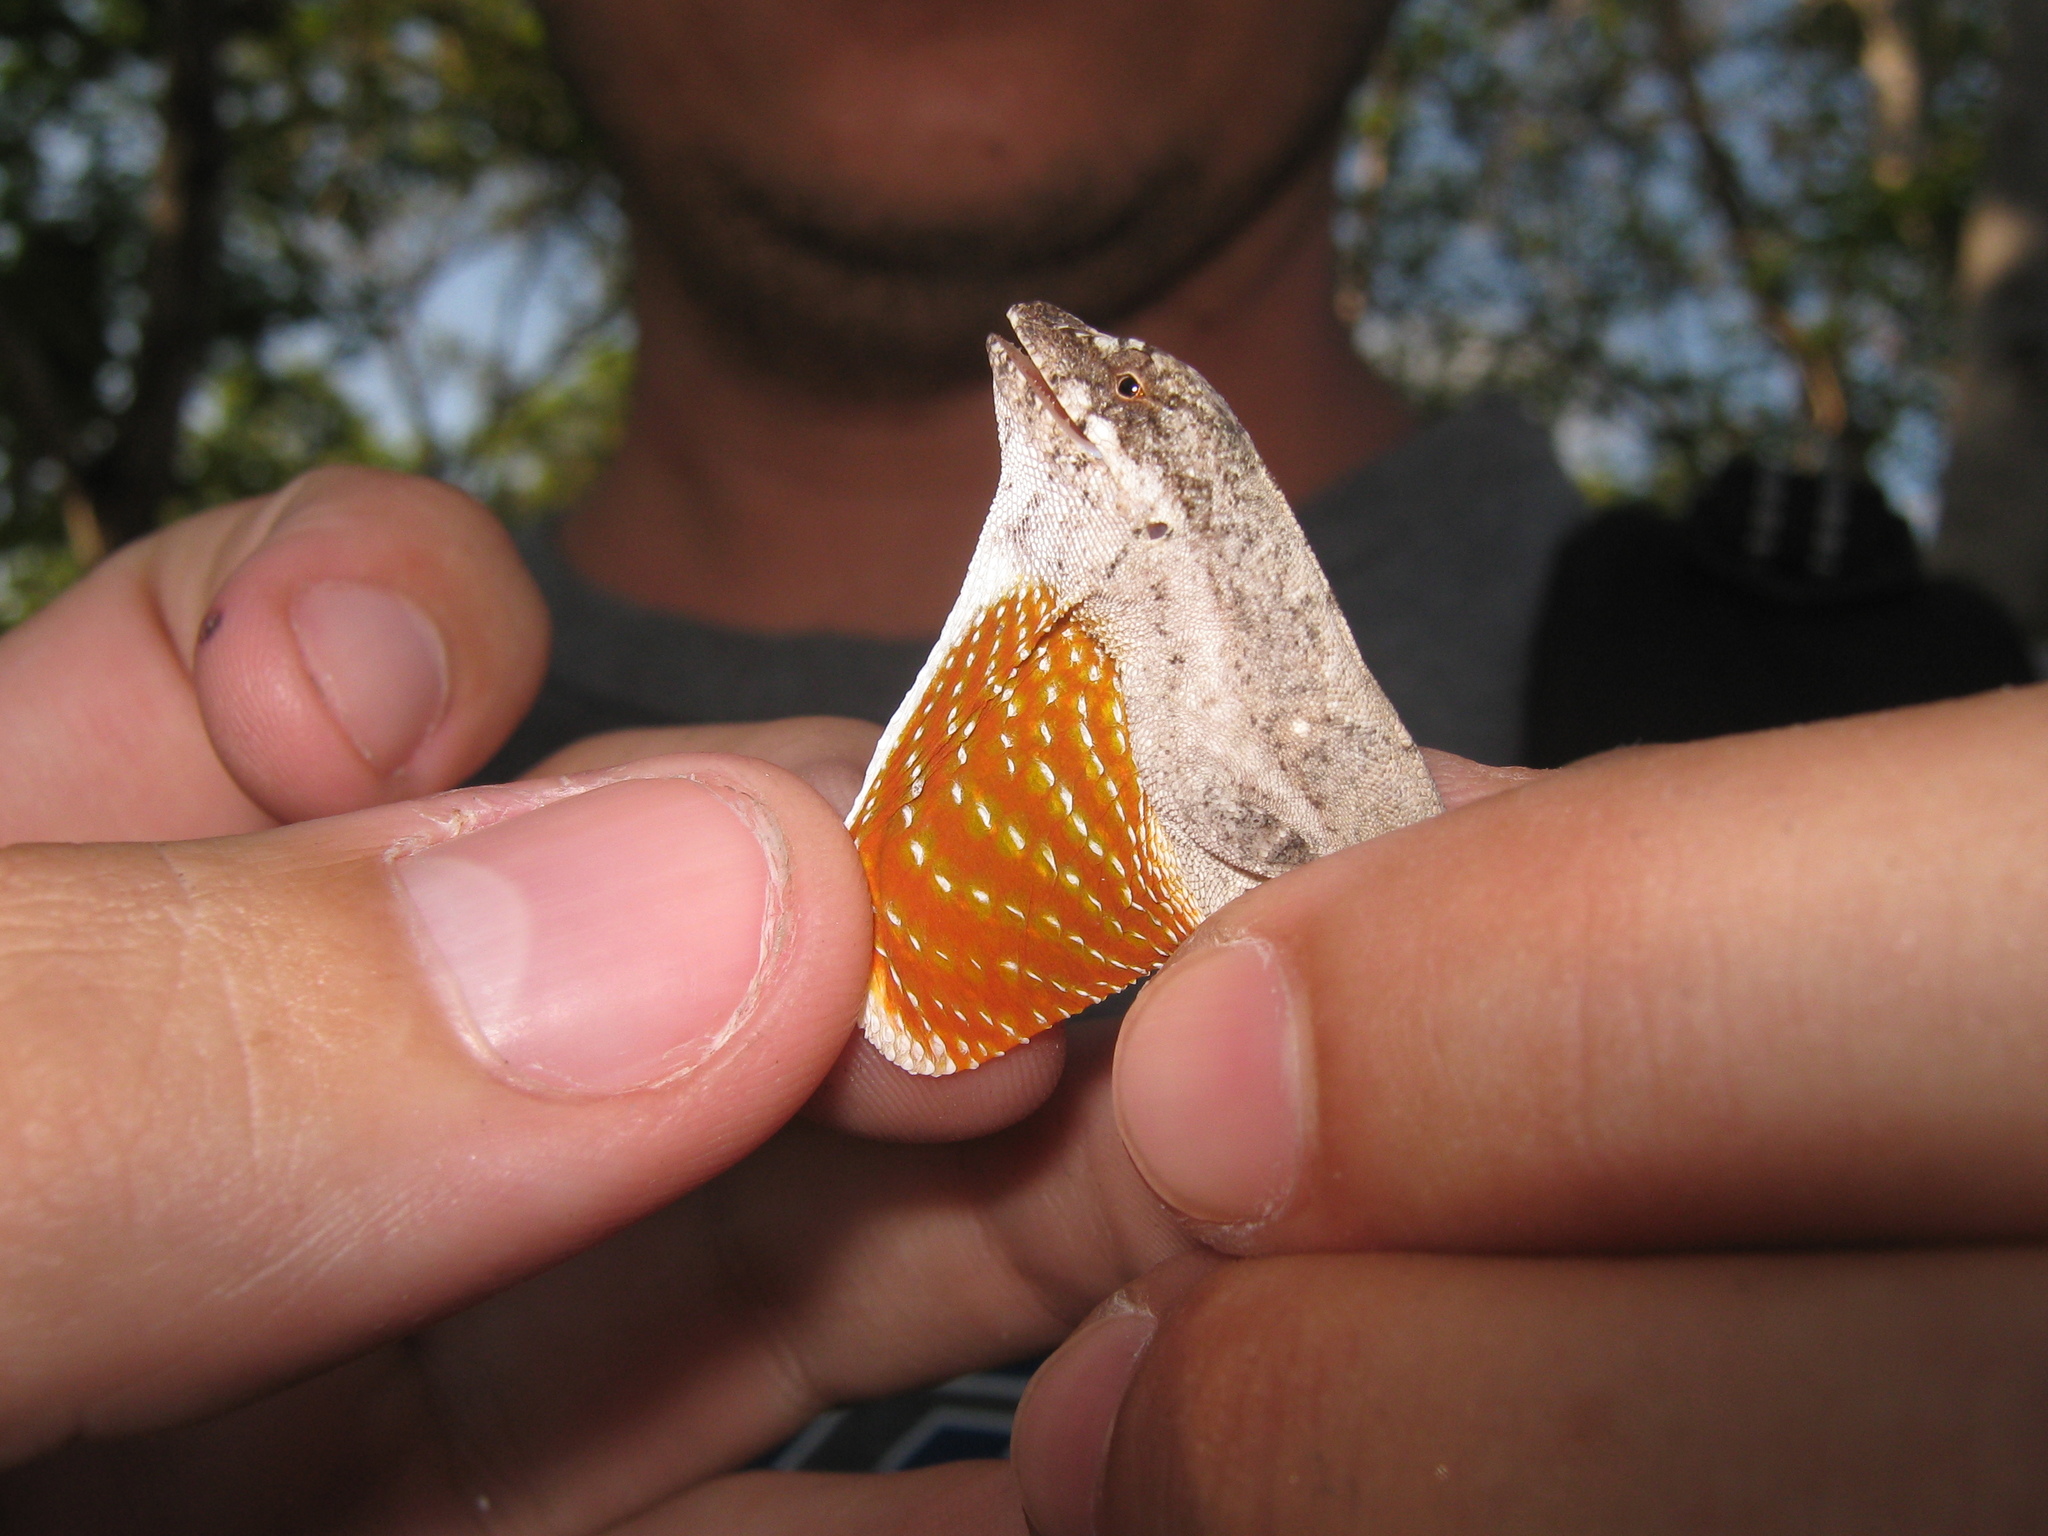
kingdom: Animalia
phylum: Chordata
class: Squamata
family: Dactyloidae
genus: Anolis
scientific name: Anolis nebulosus
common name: Clouded anole
